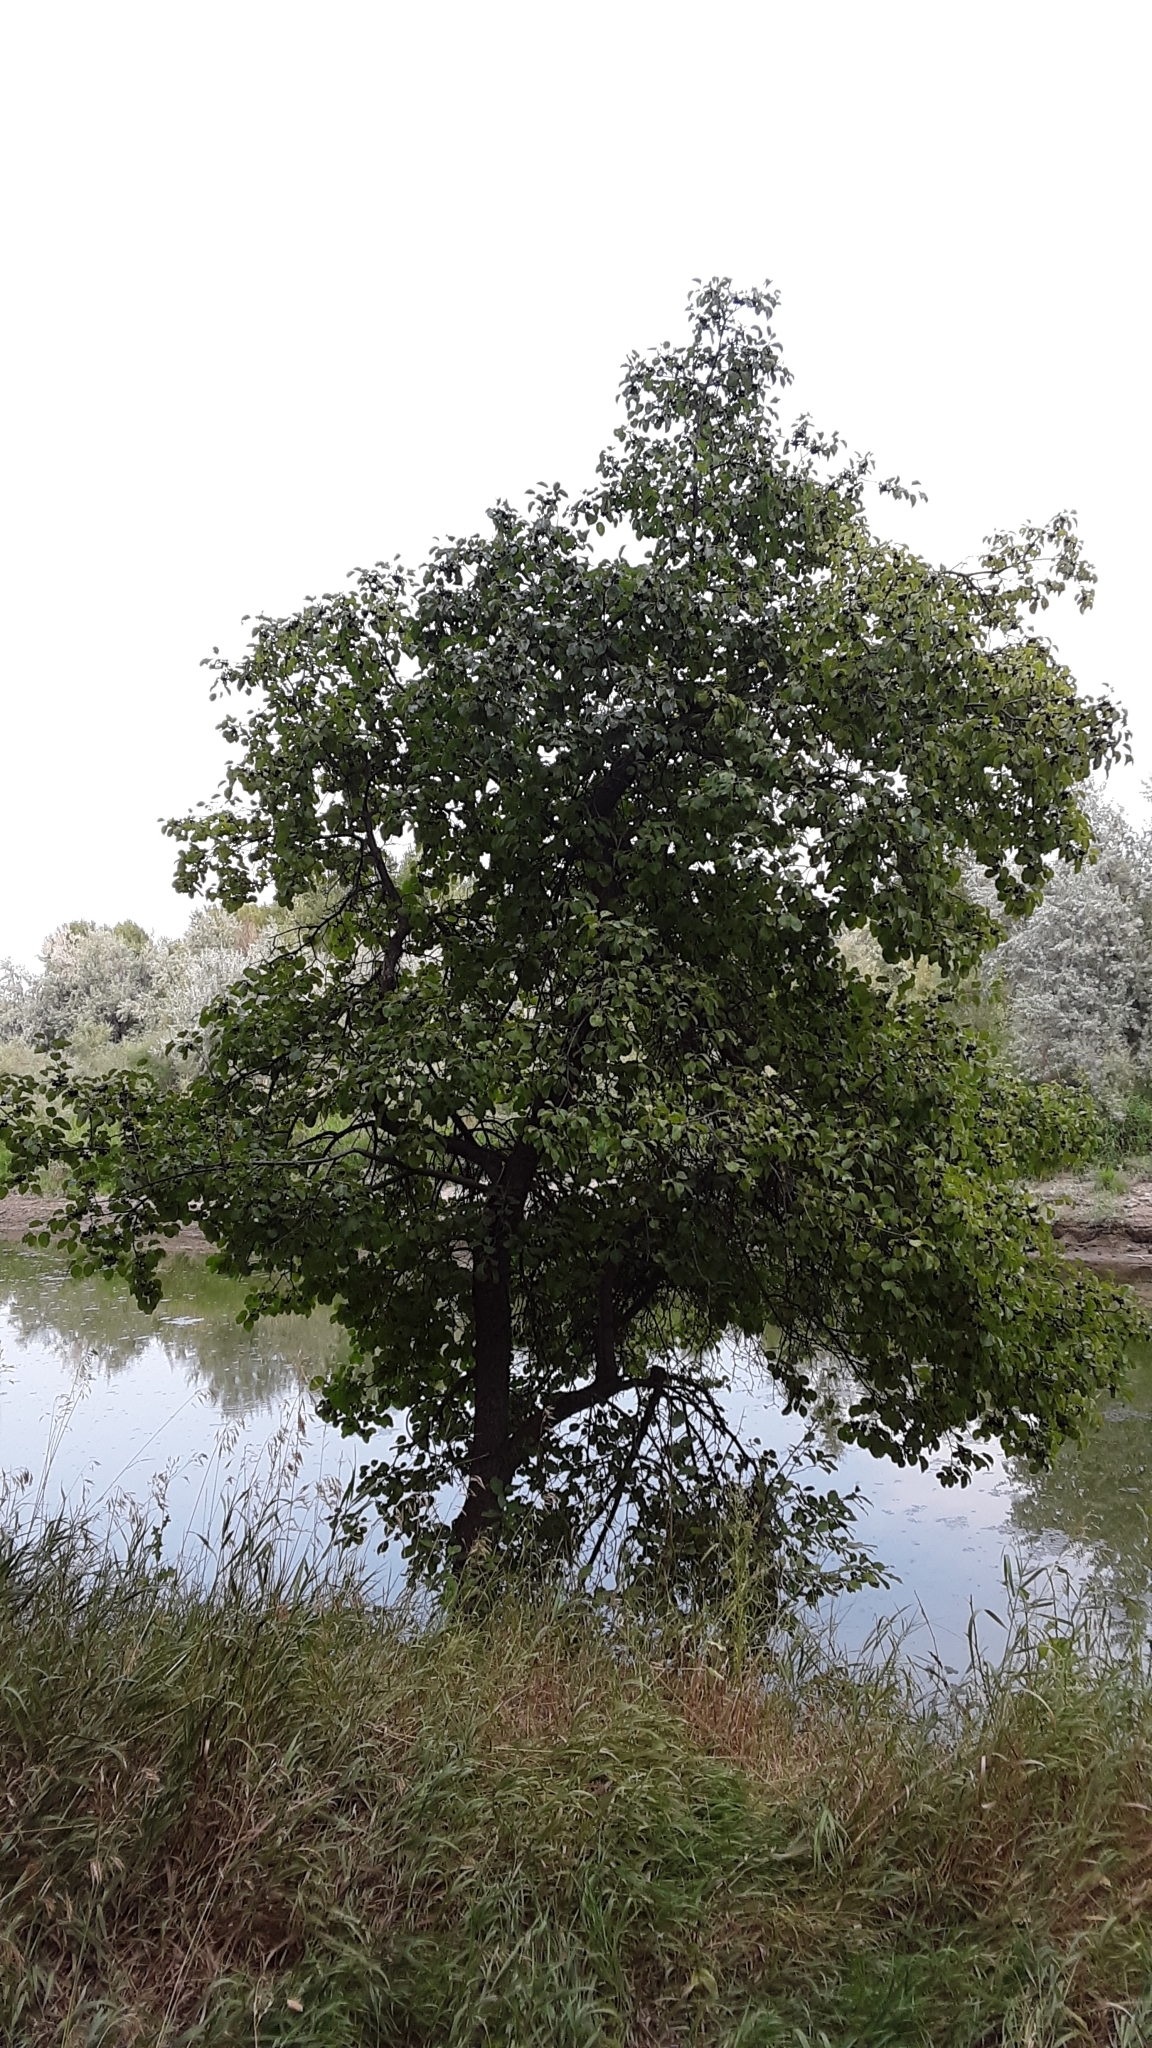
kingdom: Plantae
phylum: Tracheophyta
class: Magnoliopsida
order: Rosales
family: Rhamnaceae
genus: Rhamnus
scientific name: Rhamnus cathartica
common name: Common buckthorn
